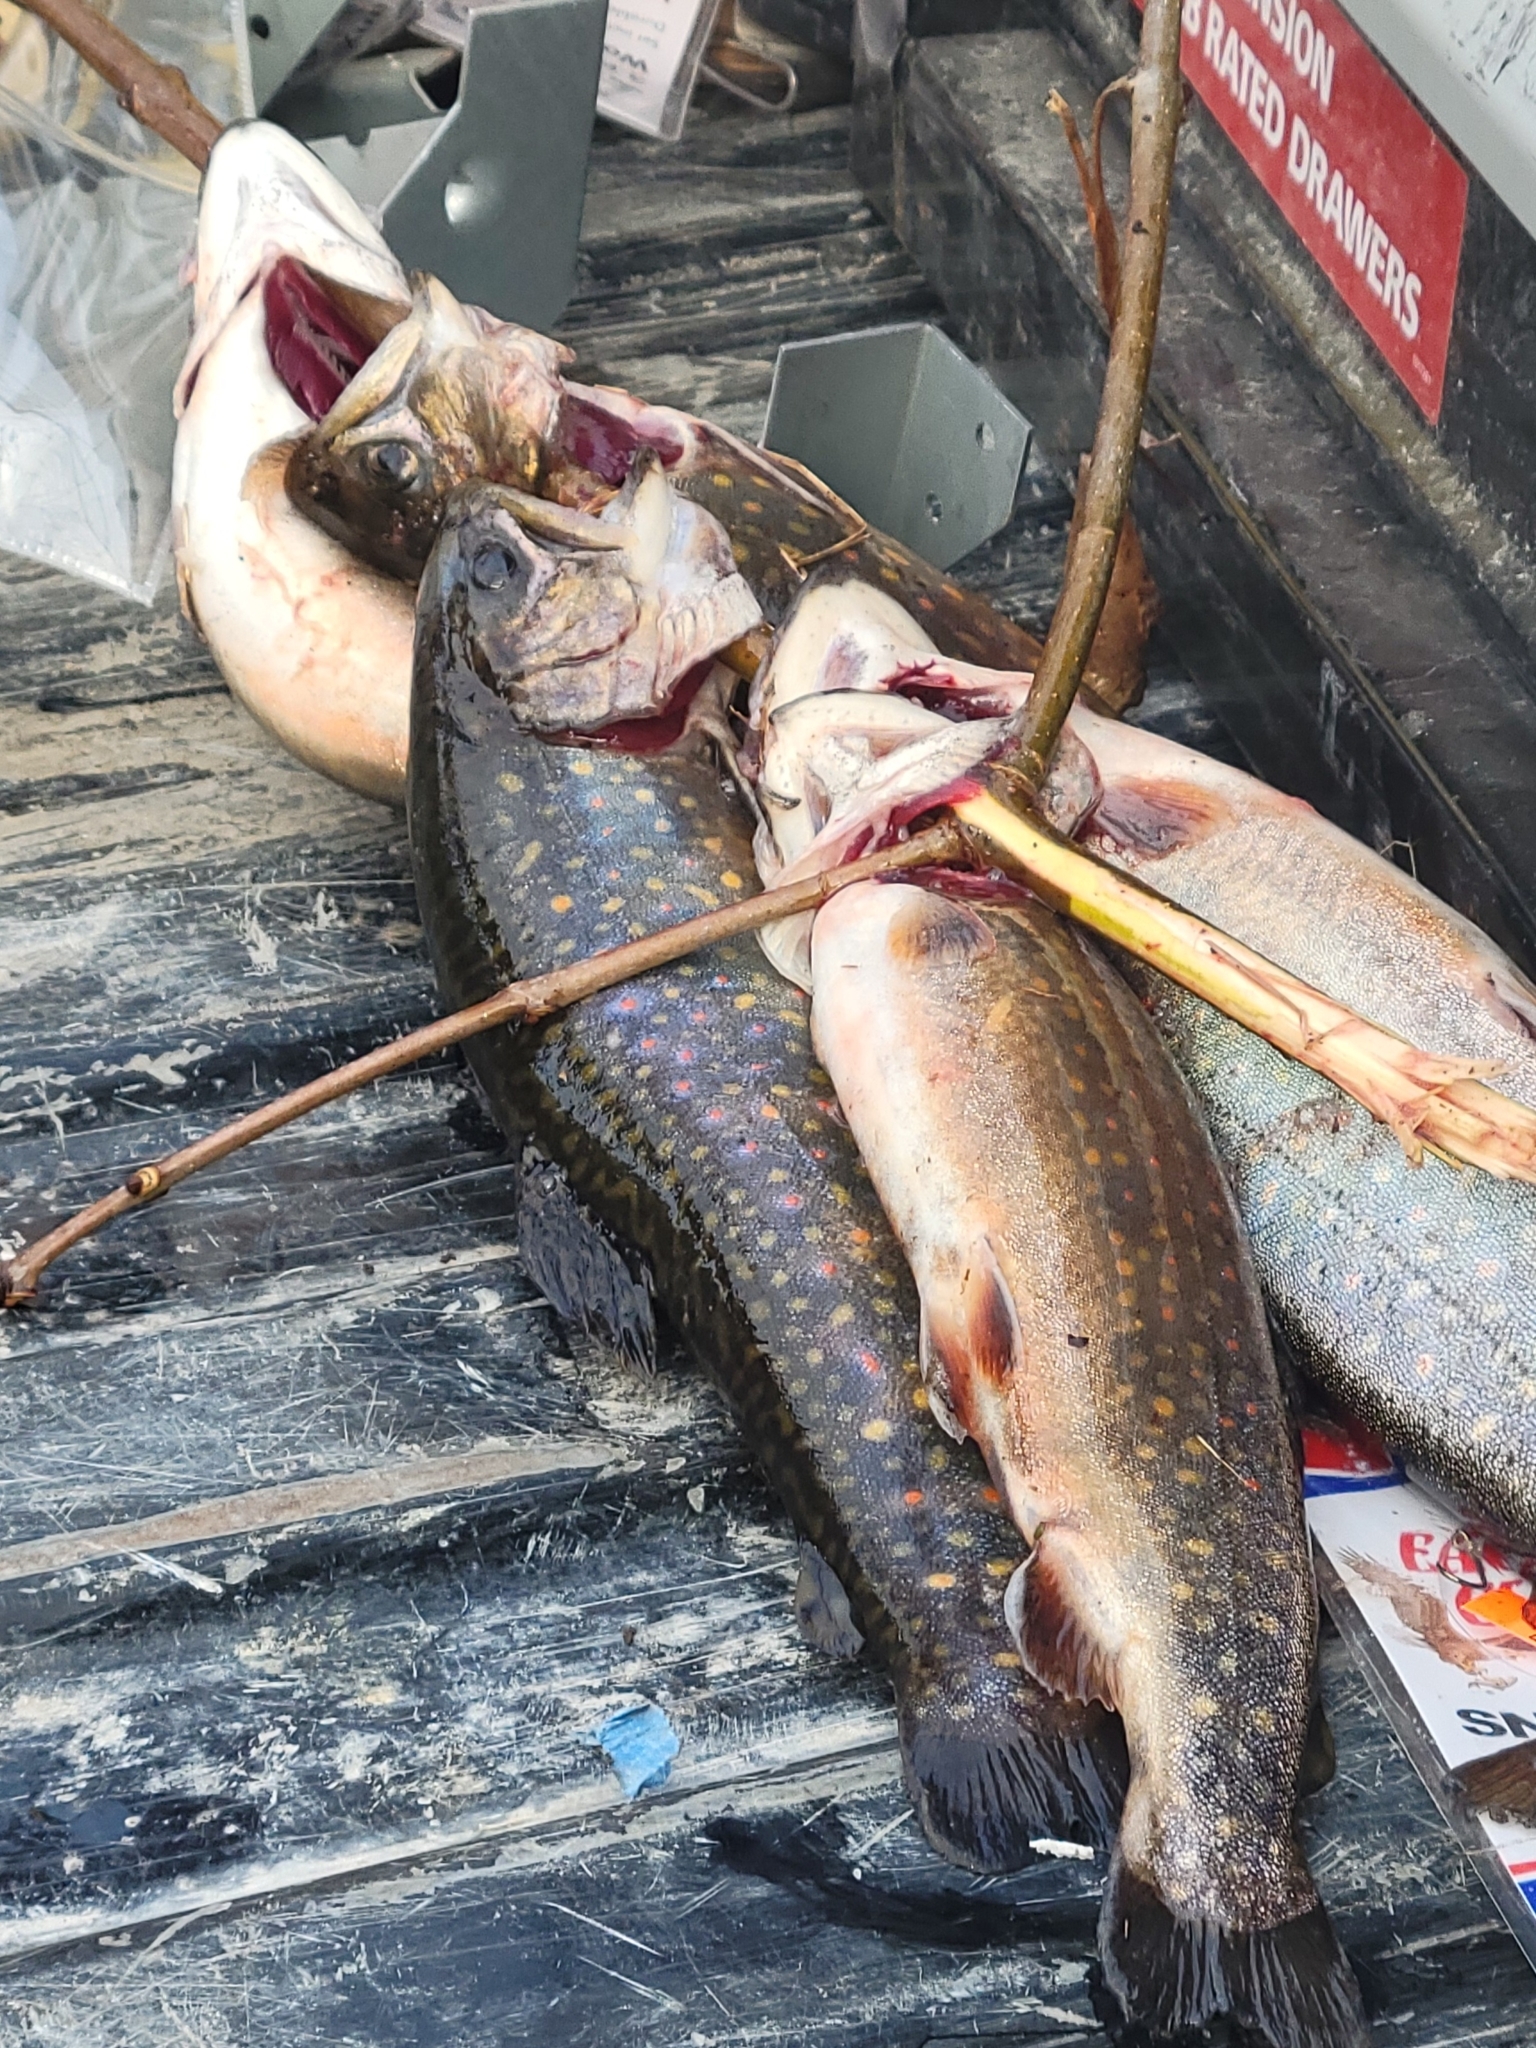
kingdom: Animalia
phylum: Chordata
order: Salmoniformes
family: Salmonidae
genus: Salvelinus
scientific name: Salvelinus fontinalis
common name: Brook trout
